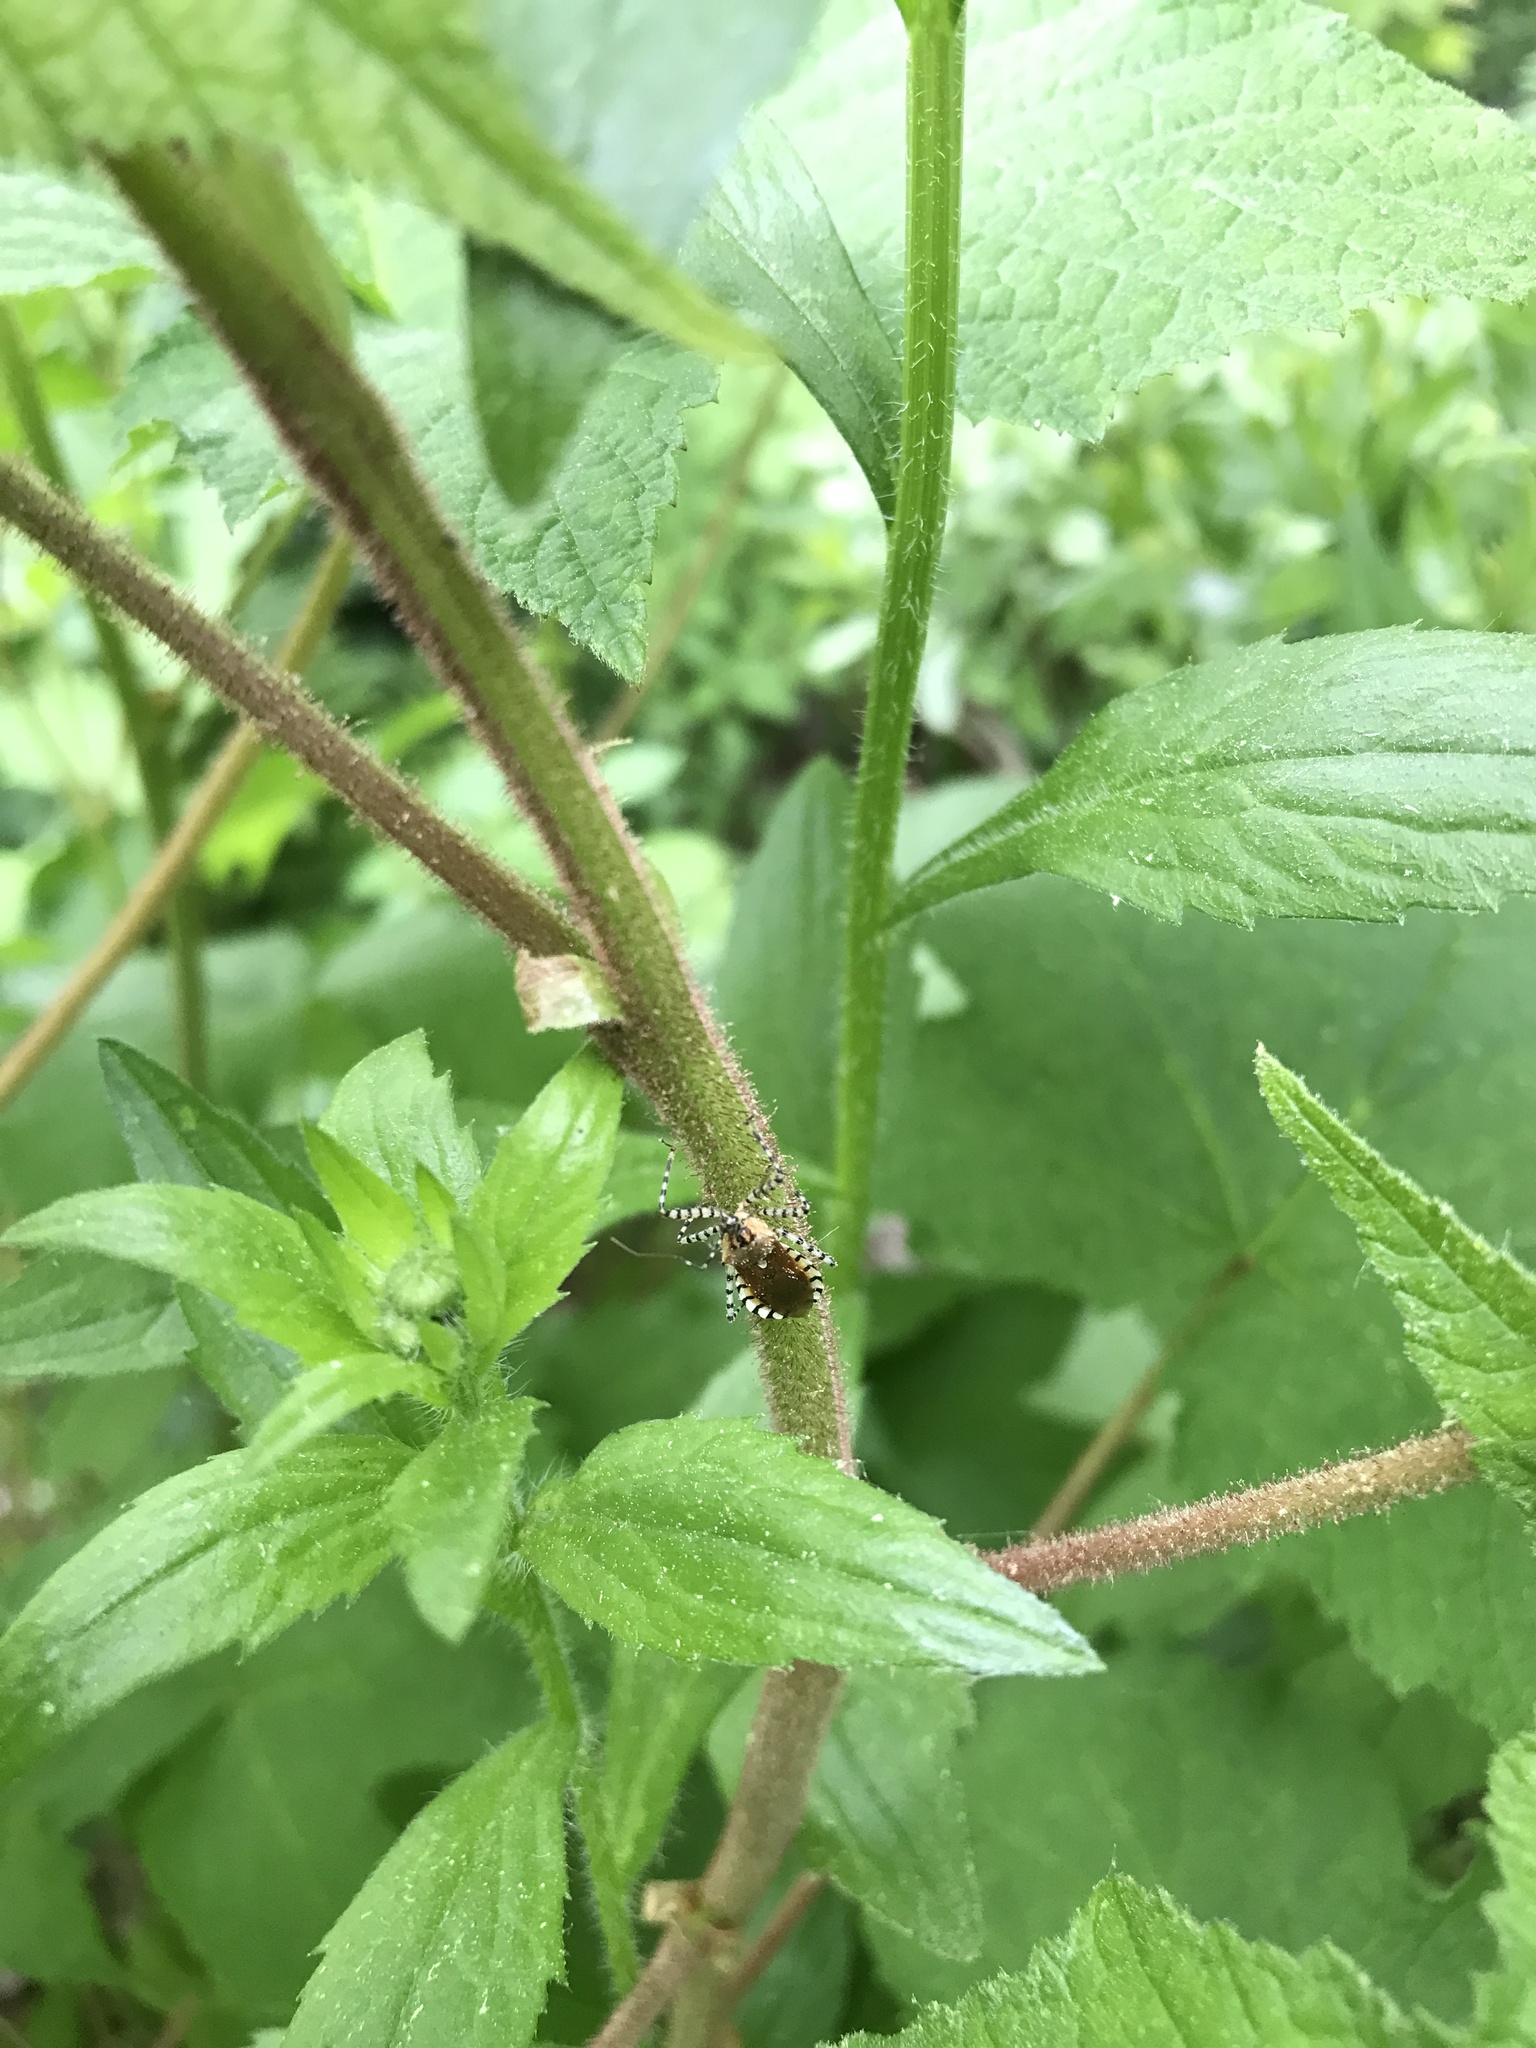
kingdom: Animalia
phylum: Arthropoda
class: Insecta
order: Hemiptera
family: Reduviidae
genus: Pselliopus
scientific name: Pselliopus cinctus
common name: Ringed assassin bug
